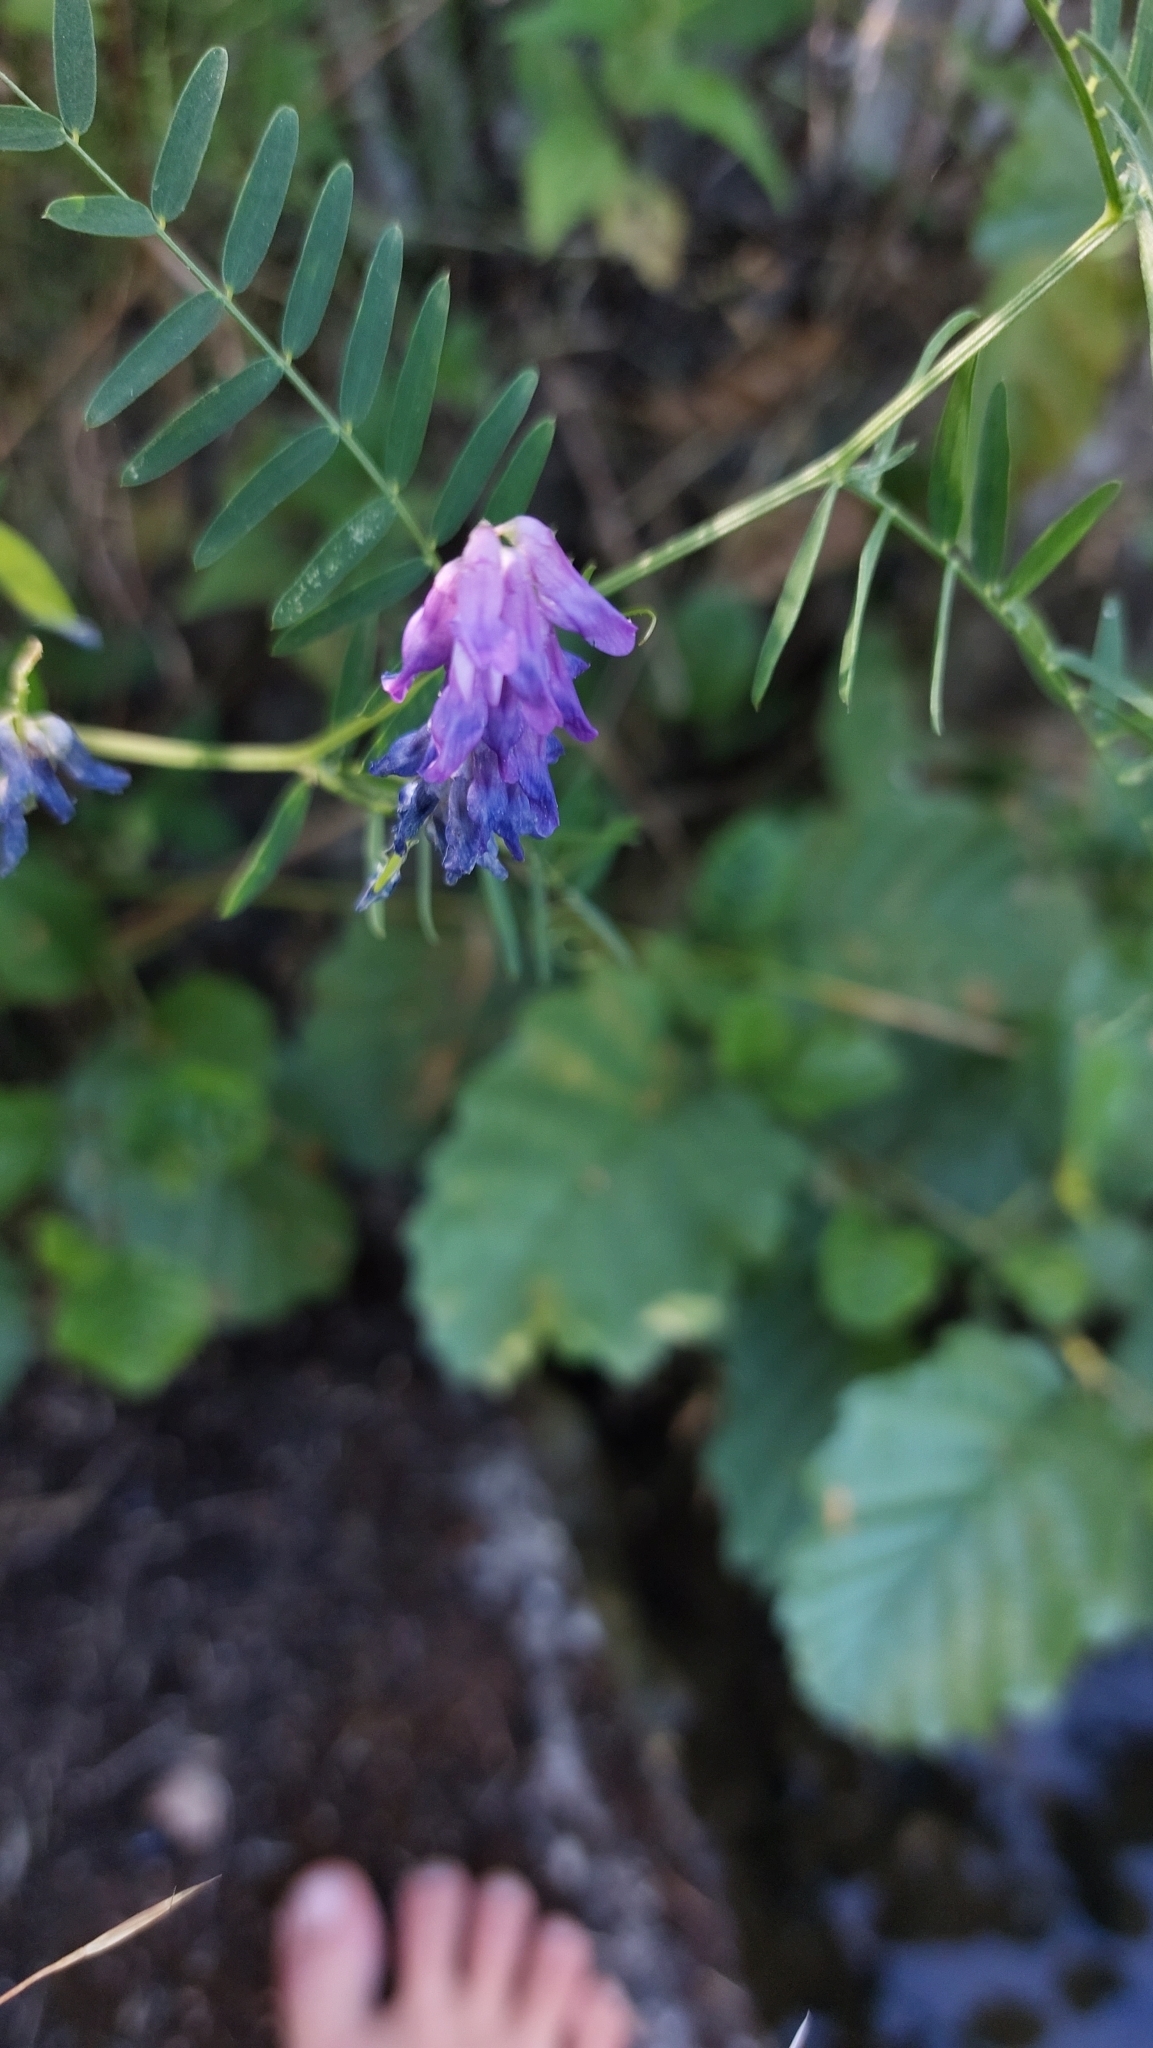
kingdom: Plantae
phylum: Tracheophyta
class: Magnoliopsida
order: Fabales
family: Fabaceae
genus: Vicia
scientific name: Vicia cracca
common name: Bird vetch
